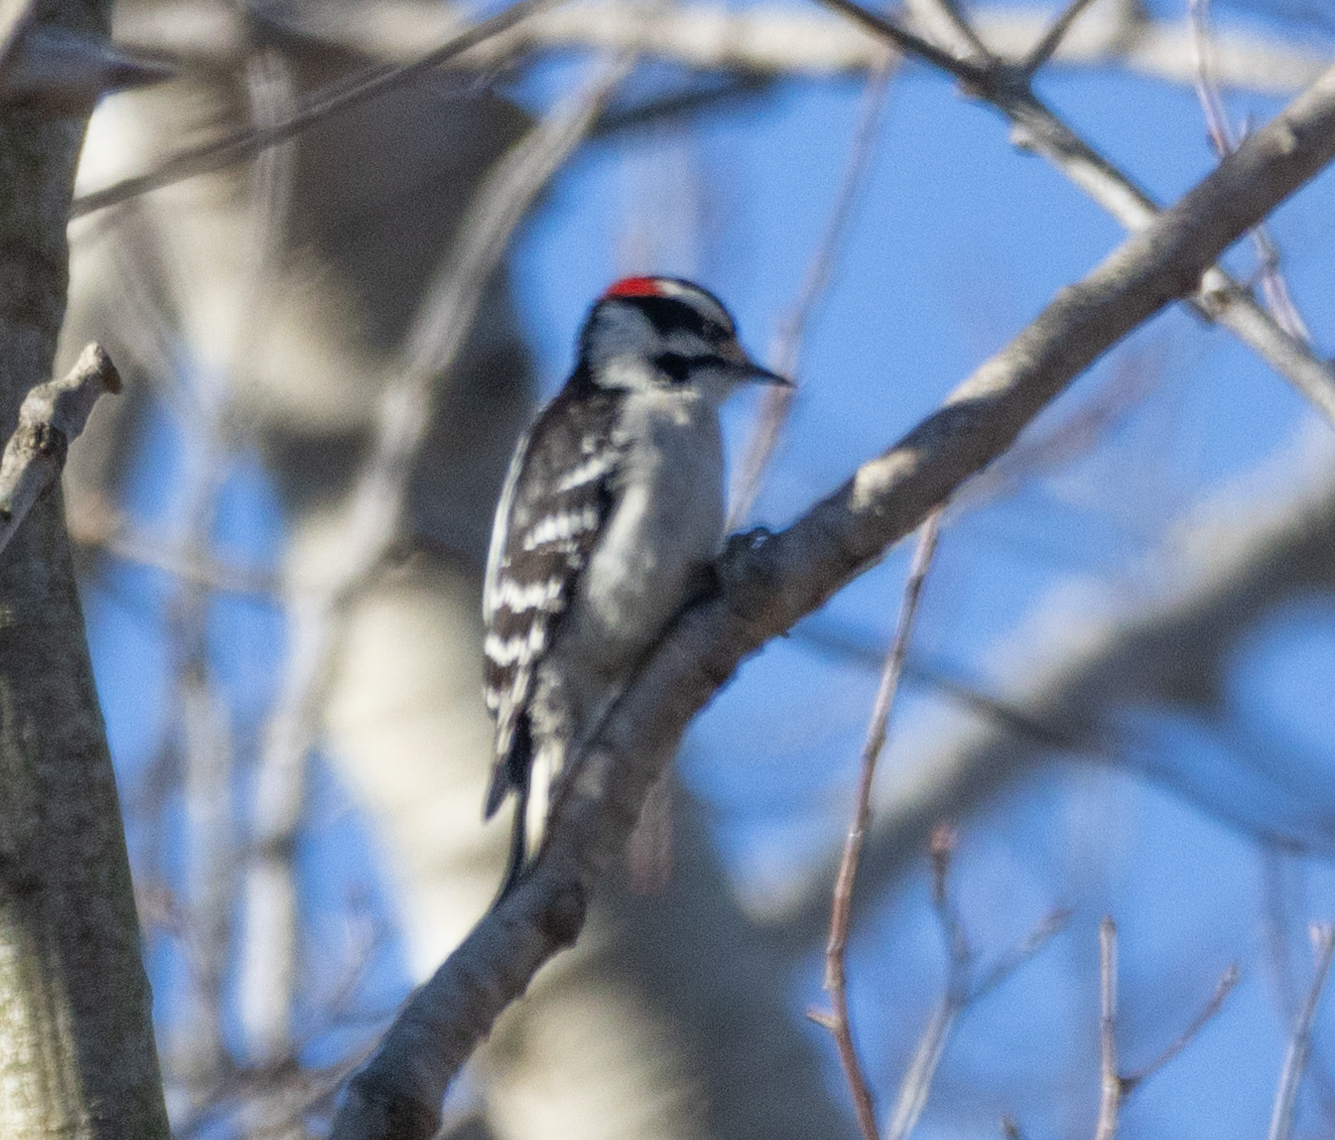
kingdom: Animalia
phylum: Chordata
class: Aves
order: Piciformes
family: Picidae
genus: Dryobates
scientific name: Dryobates pubescens
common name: Downy woodpecker
